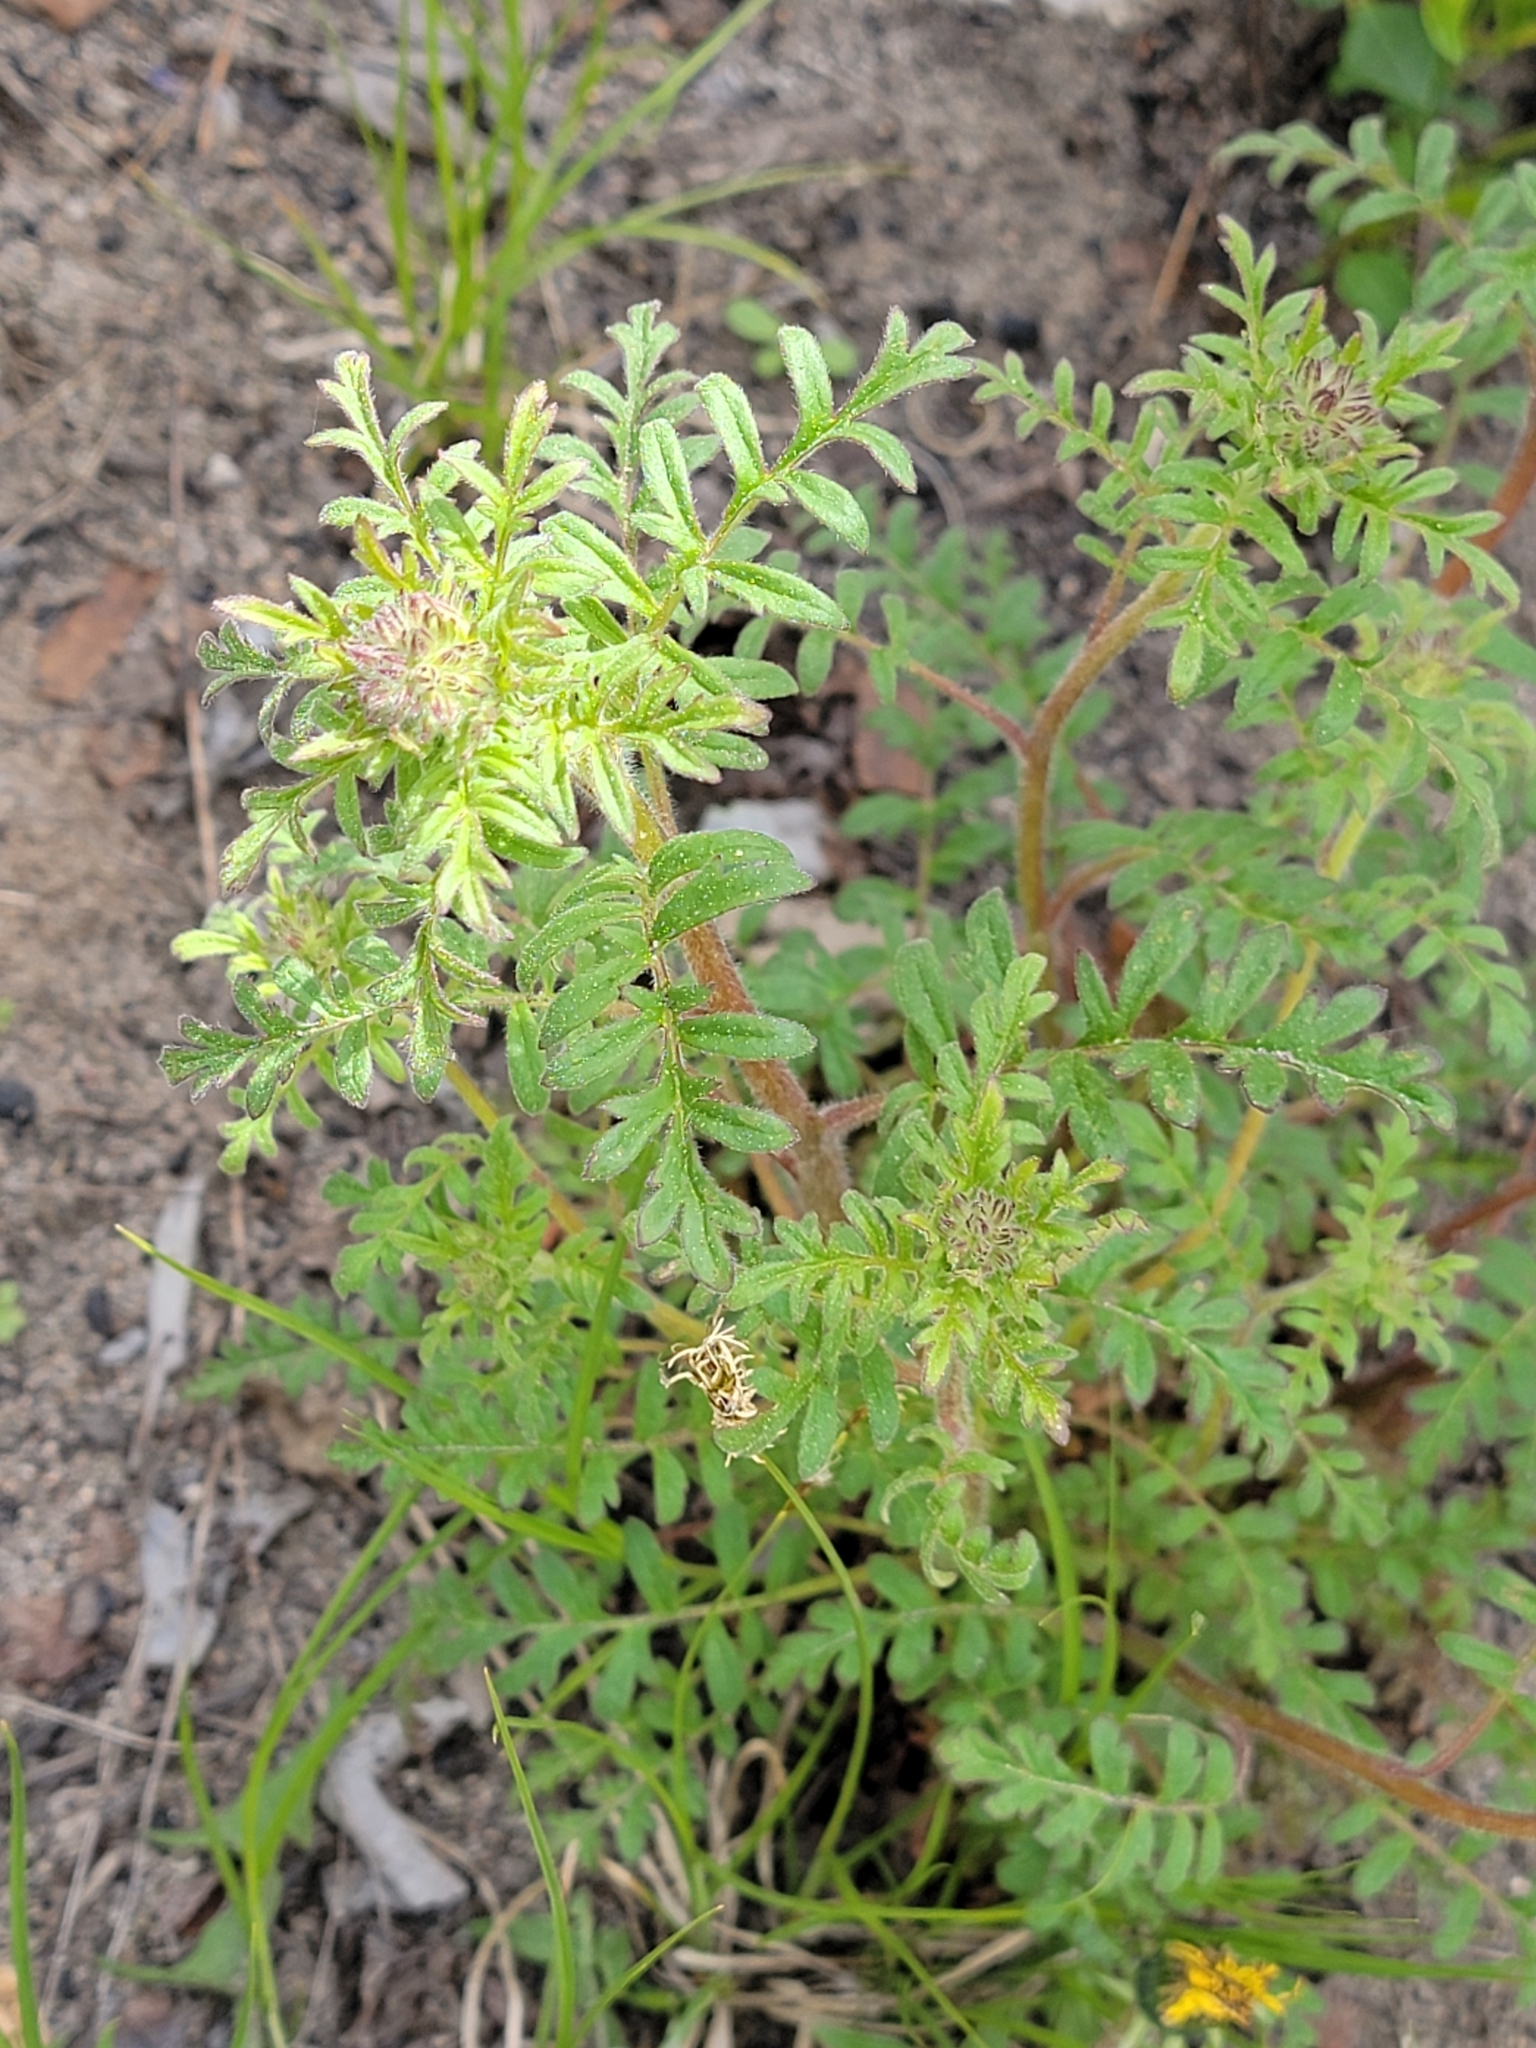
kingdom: Plantae
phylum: Tracheophyta
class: Magnoliopsida
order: Boraginales
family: Hydrophyllaceae
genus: Phacelia
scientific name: Phacelia franklinii
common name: Franklin's phacelia
